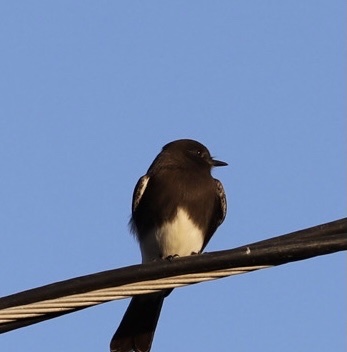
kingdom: Animalia
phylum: Chordata
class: Aves
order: Passeriformes
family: Tyrannidae
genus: Sayornis
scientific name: Sayornis nigricans
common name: Black phoebe
